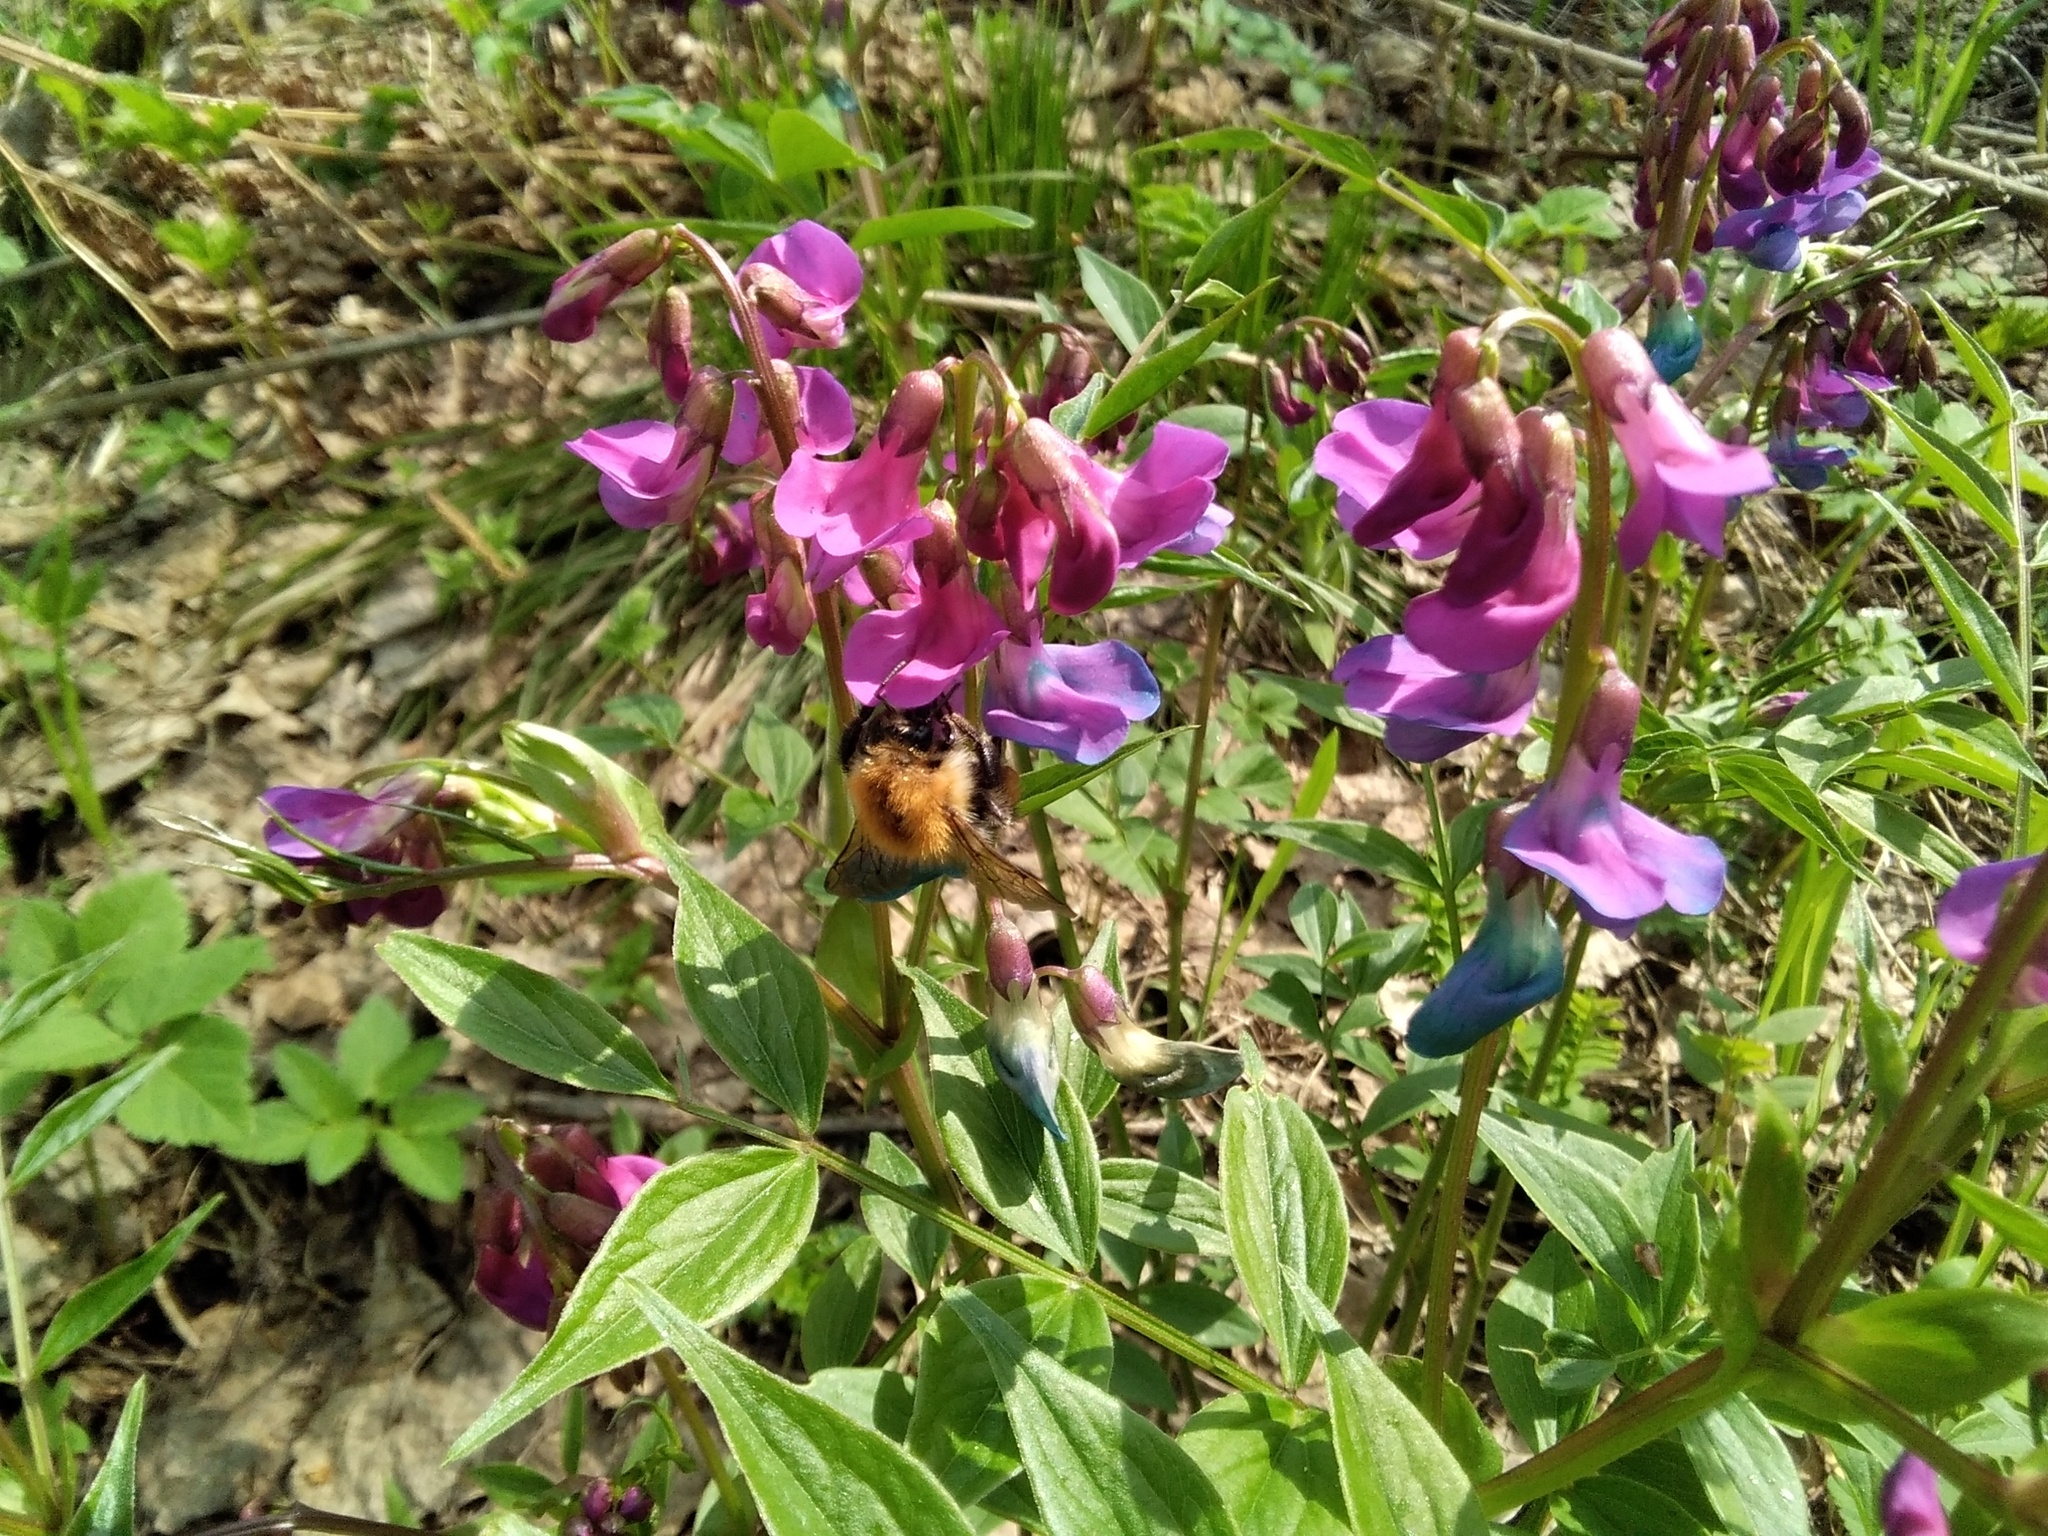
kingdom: Plantae
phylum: Tracheophyta
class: Magnoliopsida
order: Fabales
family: Fabaceae
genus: Lathyrus
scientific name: Lathyrus vernus
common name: Spring pea
